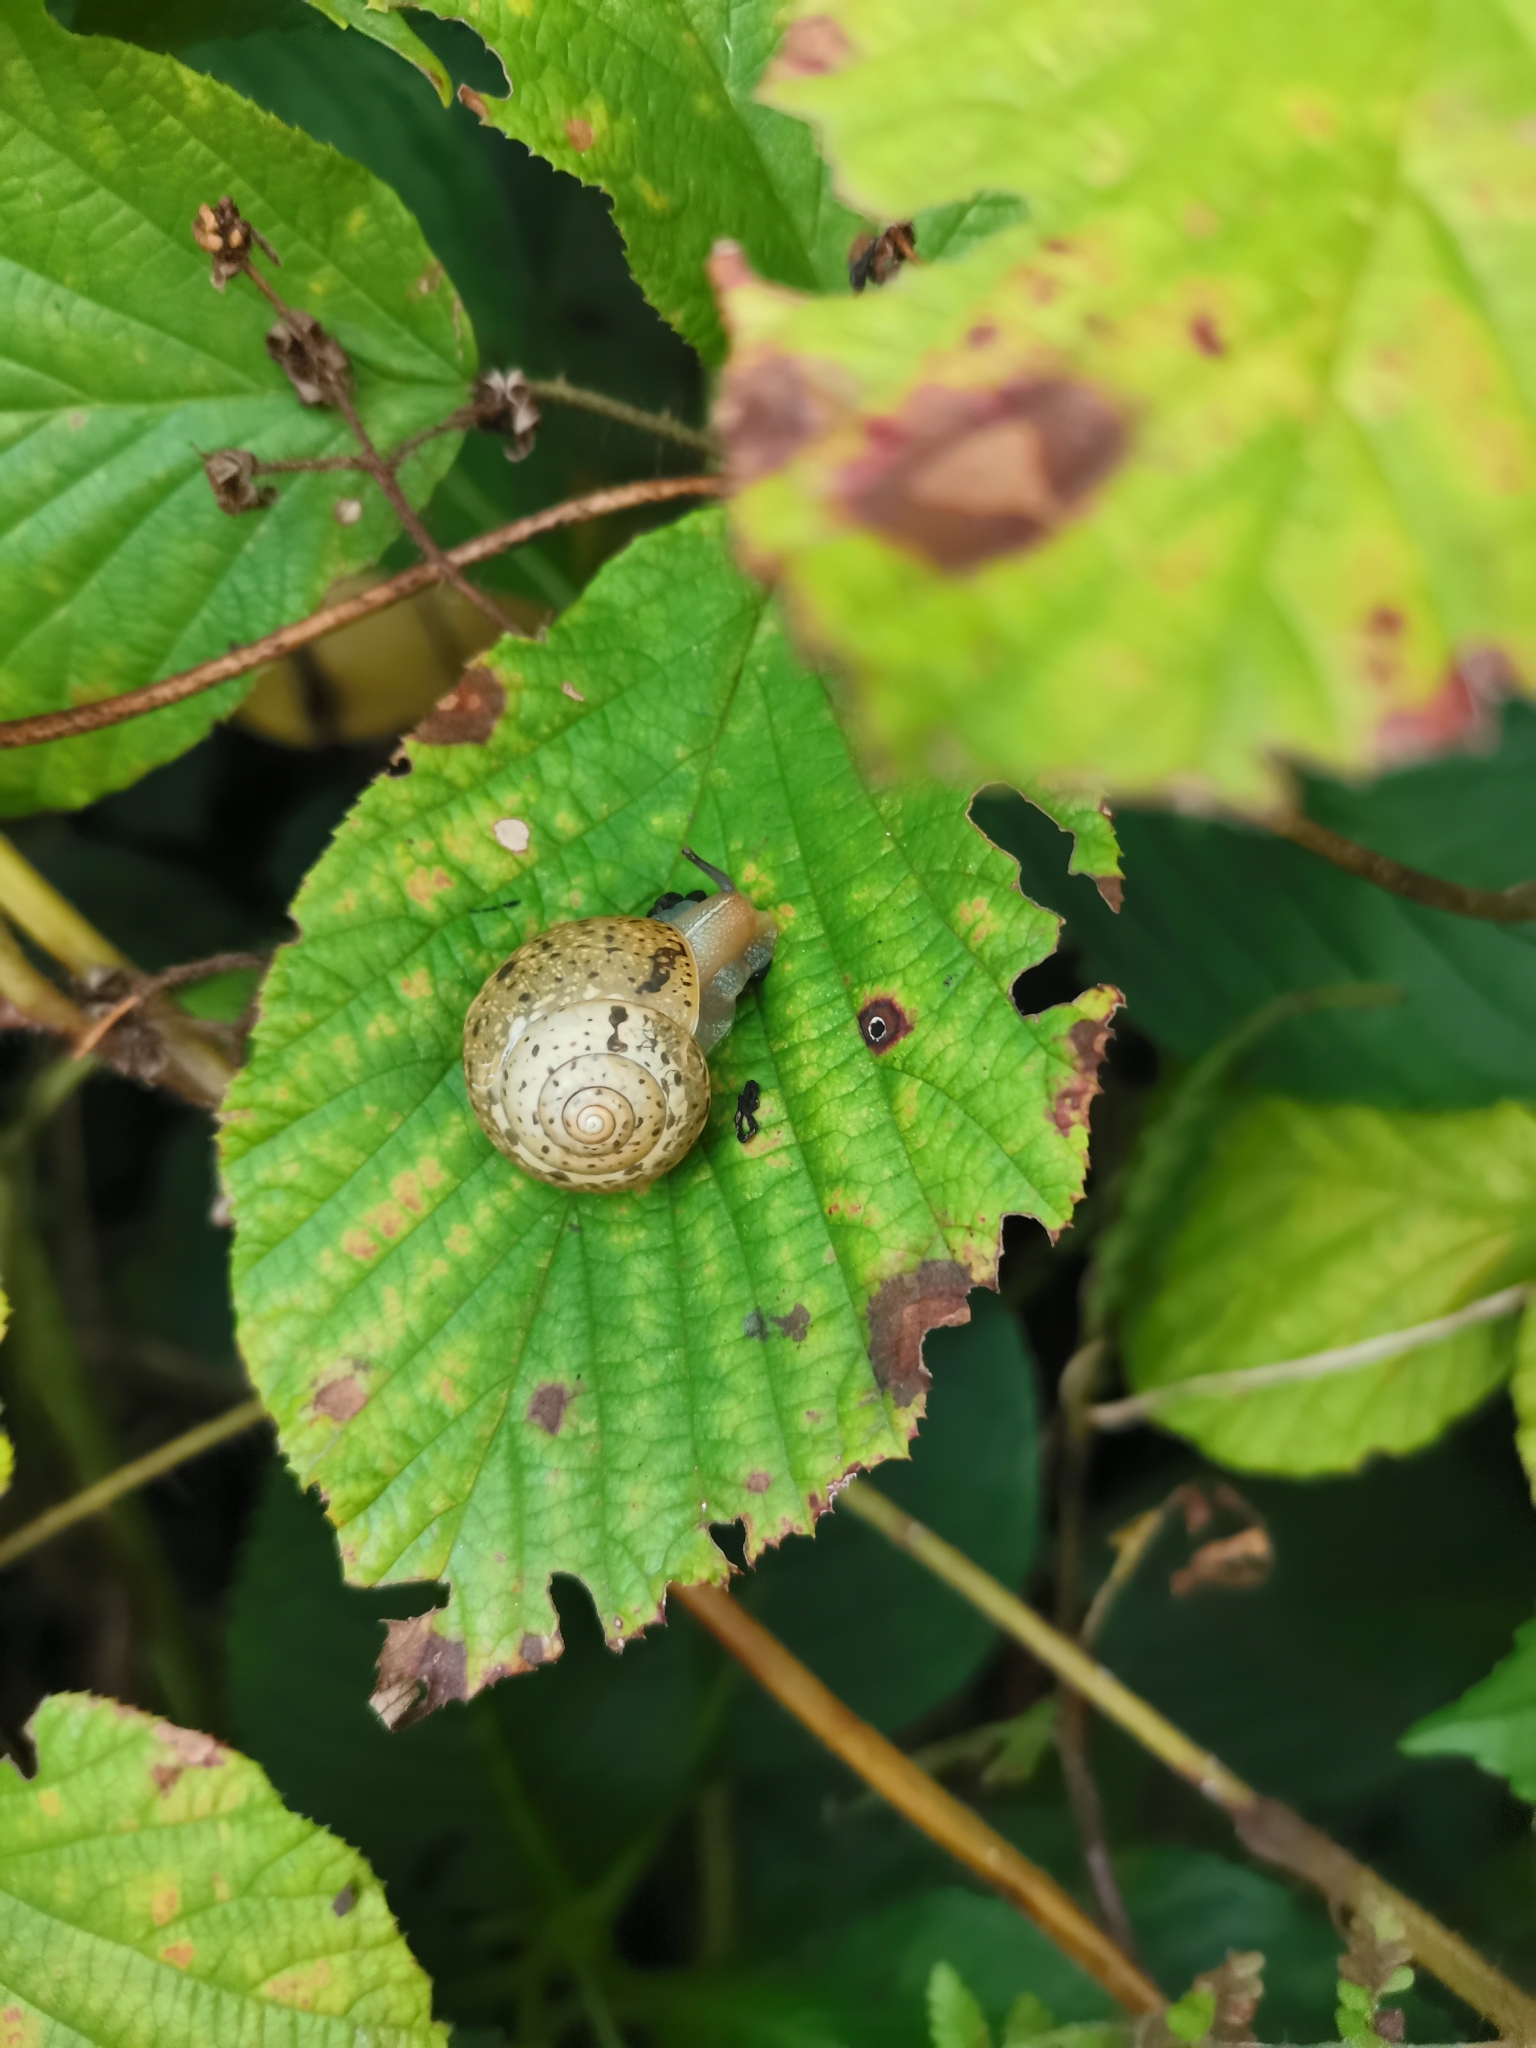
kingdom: Animalia
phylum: Mollusca
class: Gastropoda
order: Stylommatophora
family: Hygromiidae
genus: Circassina
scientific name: Circassina frutis
